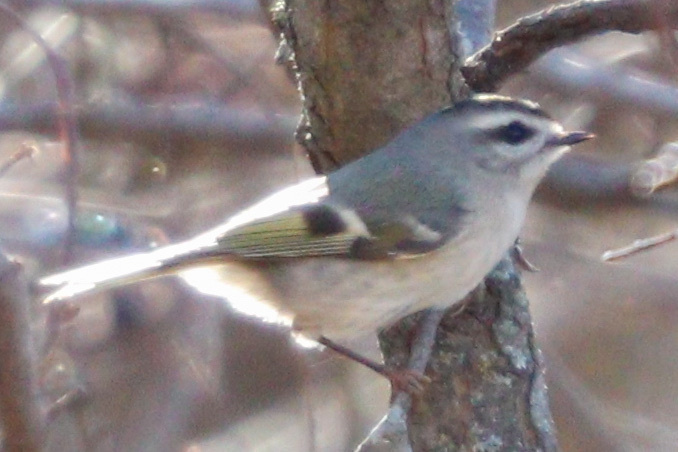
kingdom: Animalia
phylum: Chordata
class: Aves
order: Passeriformes
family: Regulidae
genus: Regulus
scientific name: Regulus satrapa
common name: Golden-crowned kinglet
